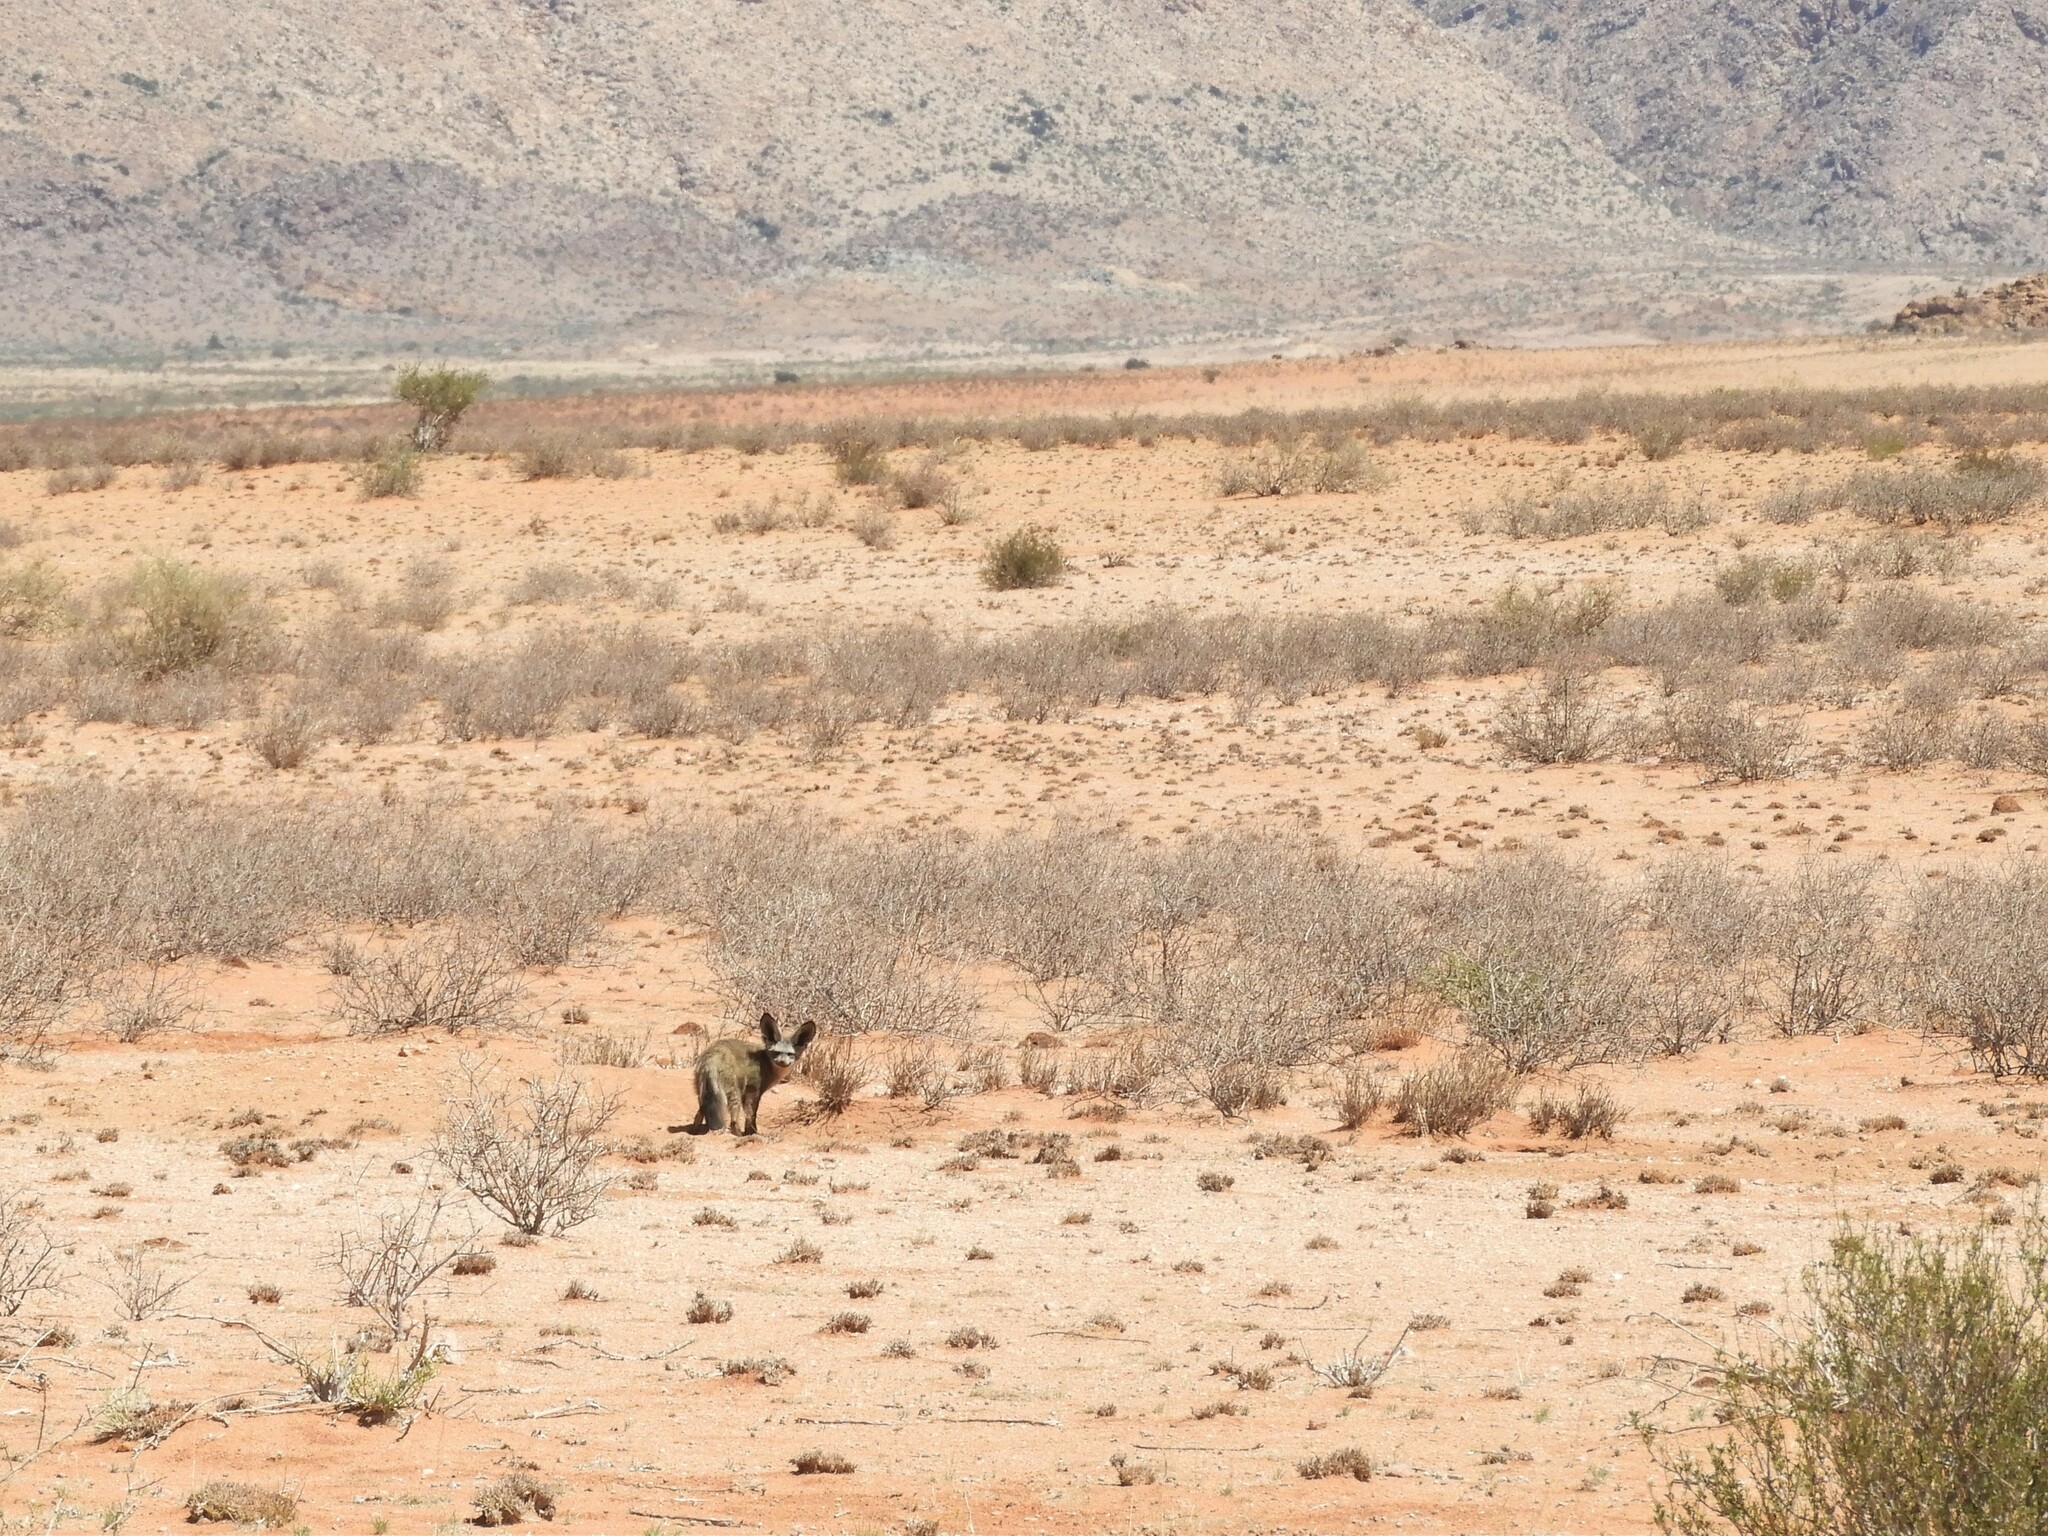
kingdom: Animalia
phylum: Chordata
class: Mammalia
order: Carnivora
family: Canidae
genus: Otocyon
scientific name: Otocyon megalotis
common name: Bat-eared fox
